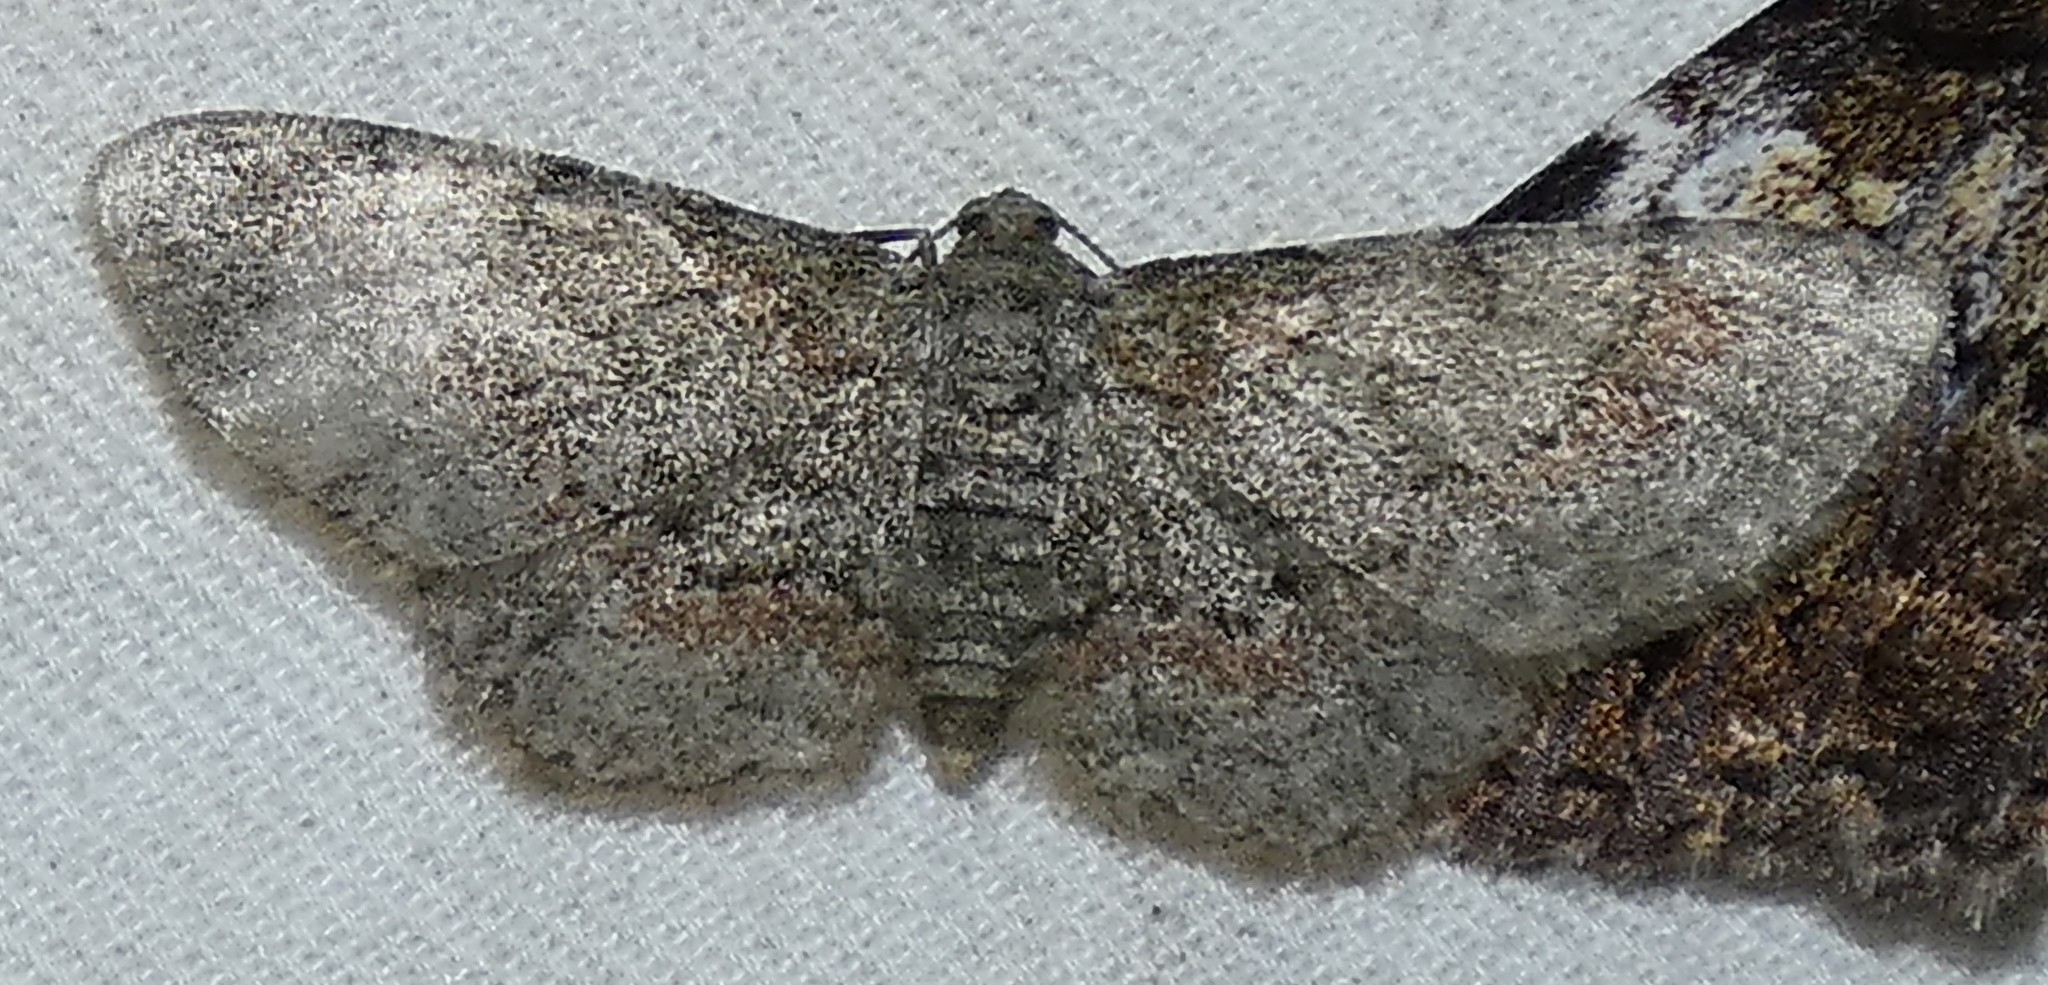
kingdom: Animalia
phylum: Arthropoda
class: Insecta
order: Lepidoptera
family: Geometridae
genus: Glenoides
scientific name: Glenoides texanaria
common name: Texas gray
